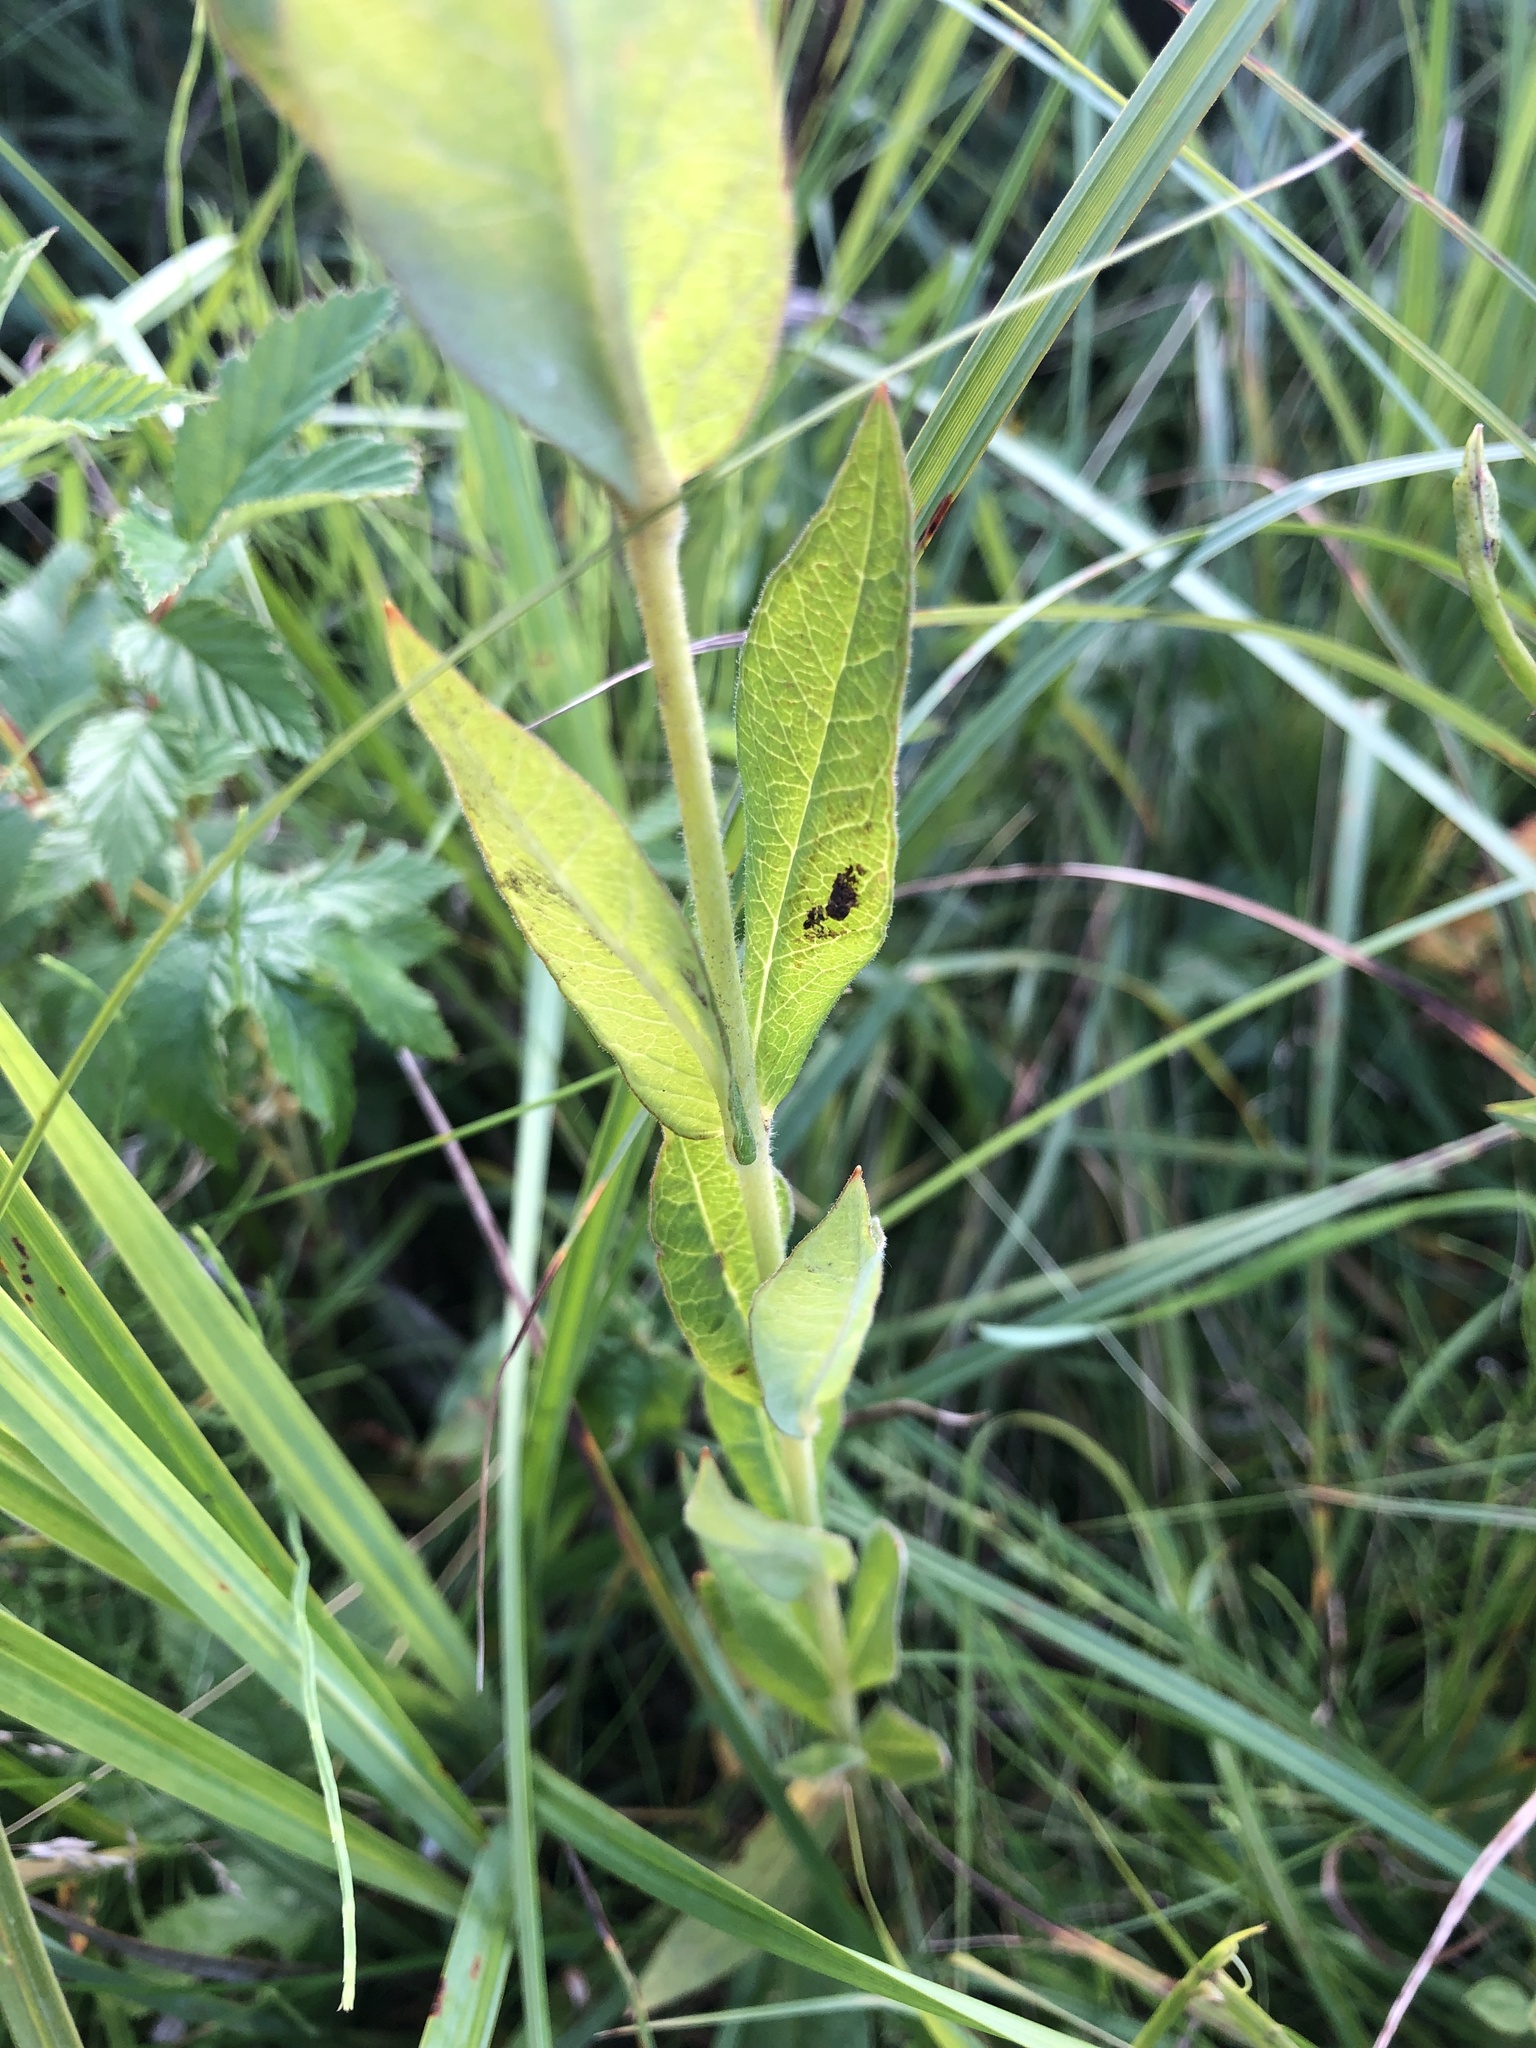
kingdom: Plantae
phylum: Tracheophyta
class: Magnoliopsida
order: Ericales
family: Primulaceae
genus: Lysimachia
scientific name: Lysimachia vulgaris
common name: Yellow loosestrife
